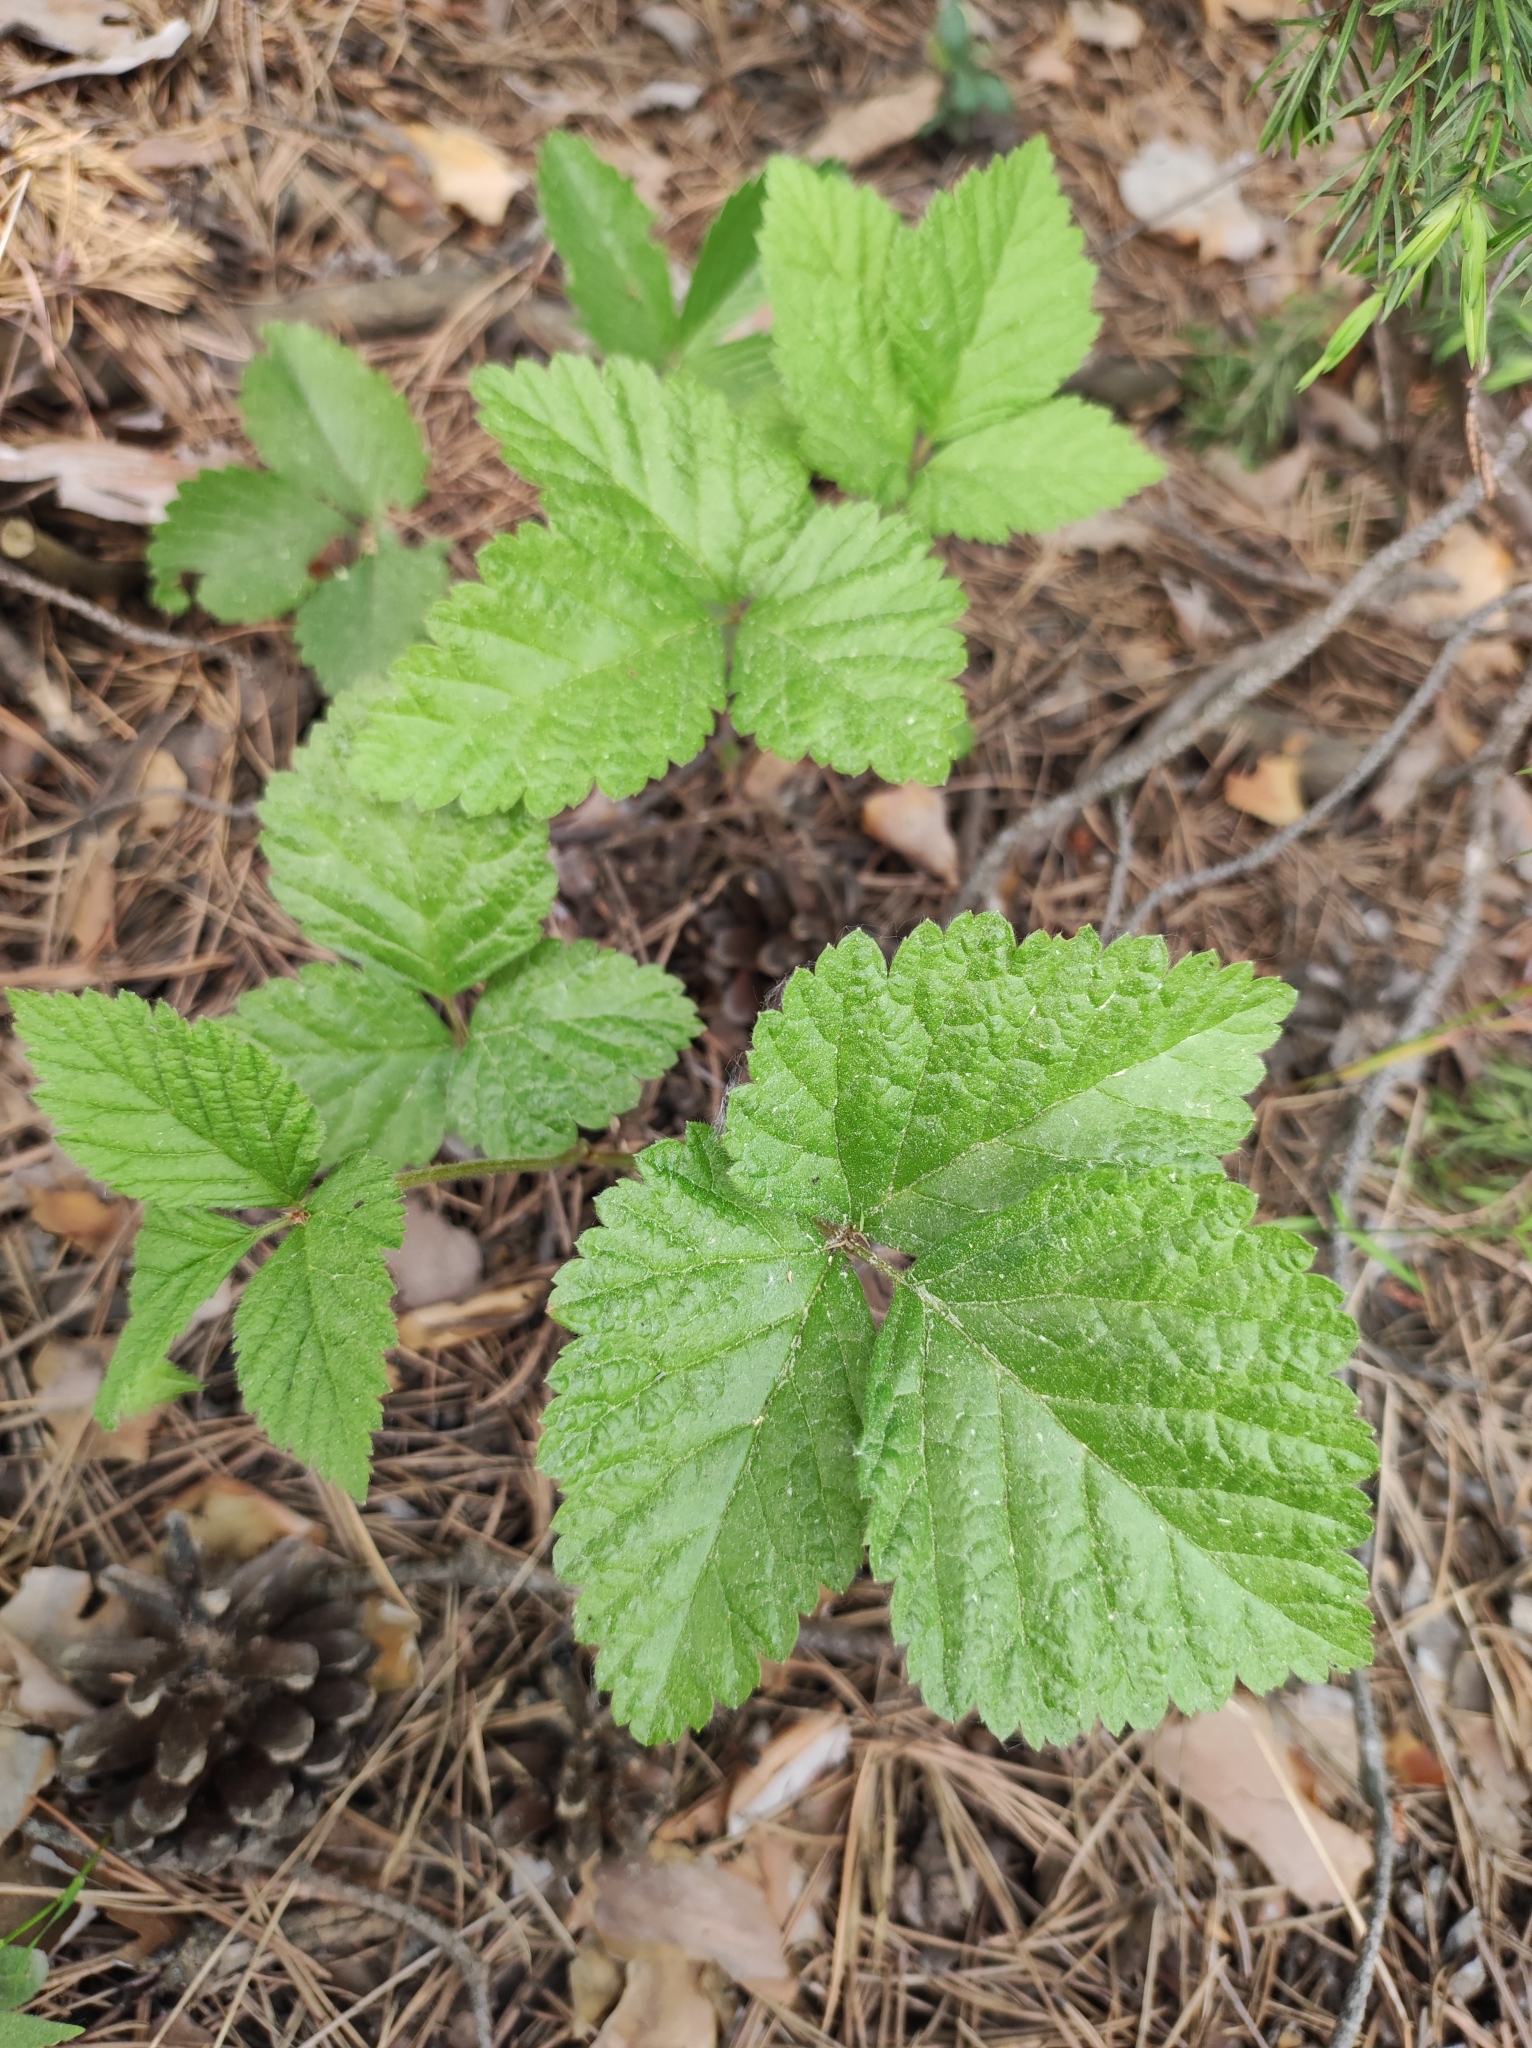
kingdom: Plantae
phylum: Tracheophyta
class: Magnoliopsida
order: Rosales
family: Rosaceae
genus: Rubus
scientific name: Rubus saxatilis
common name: Stone bramble
